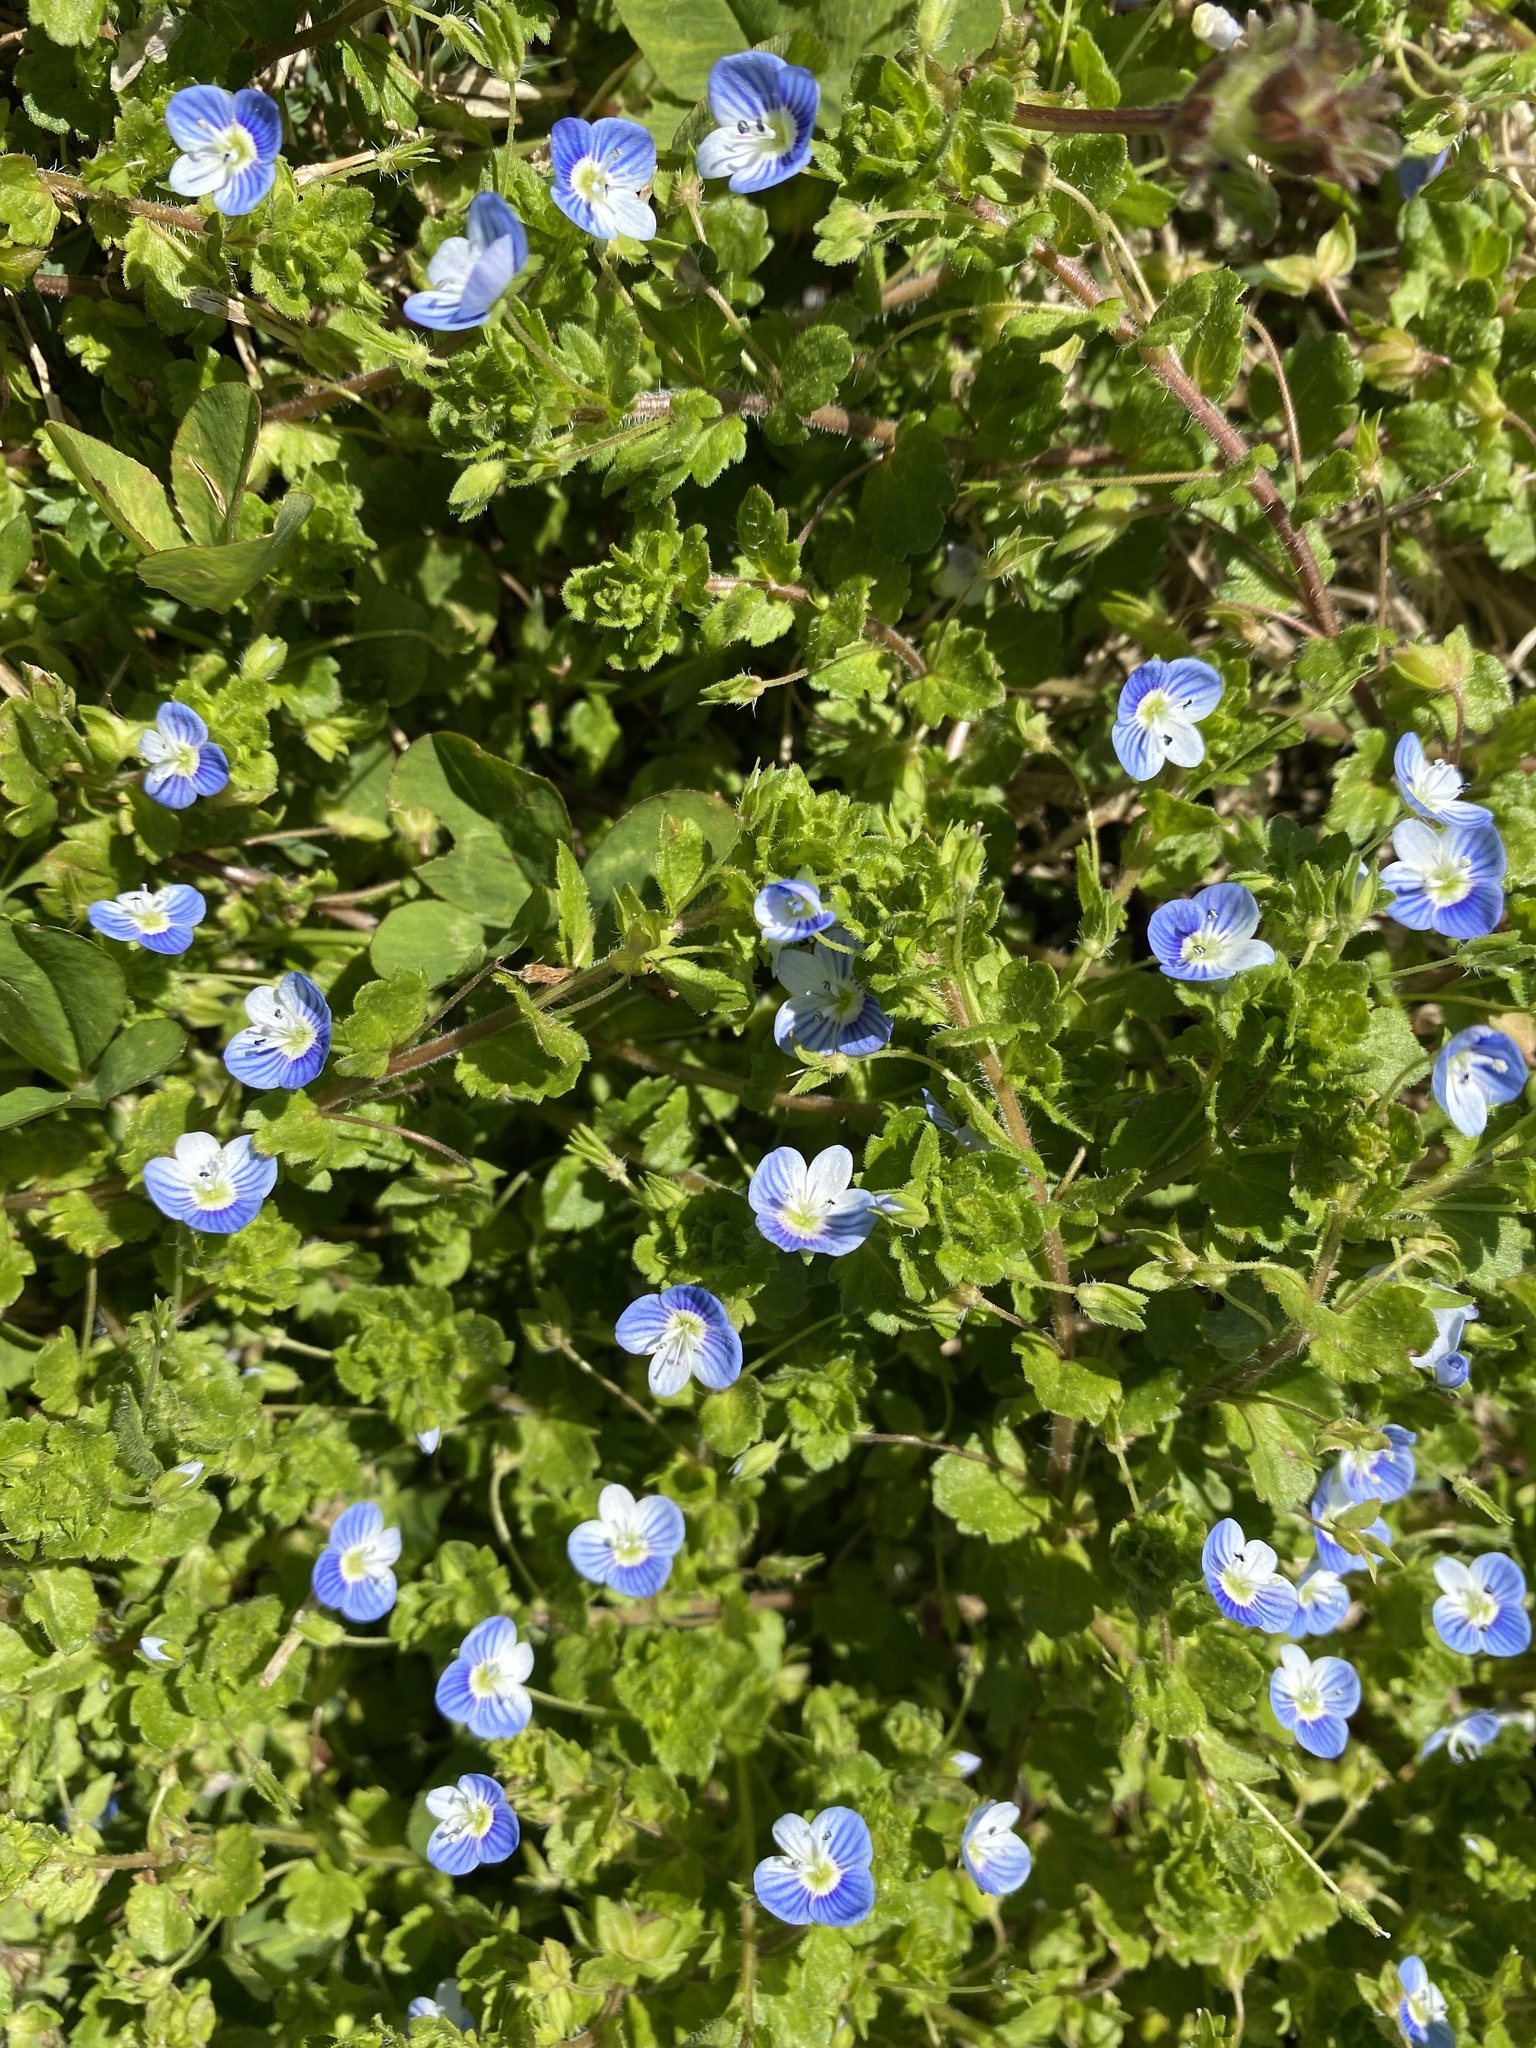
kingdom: Plantae
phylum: Tracheophyta
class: Magnoliopsida
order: Lamiales
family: Plantaginaceae
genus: Veronica
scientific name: Veronica persica
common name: Common field-speedwell
